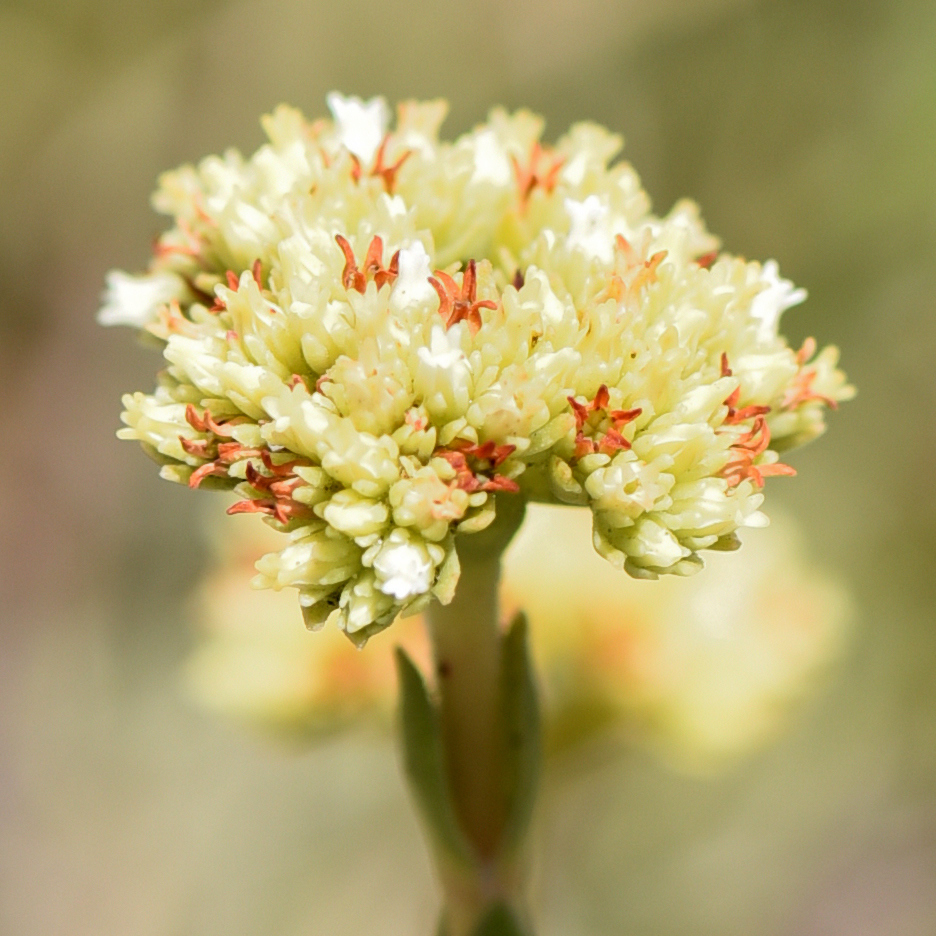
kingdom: Plantae
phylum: Tracheophyta
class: Magnoliopsida
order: Saxifragales
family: Crassulaceae
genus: Crassula
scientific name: Crassula subulata
